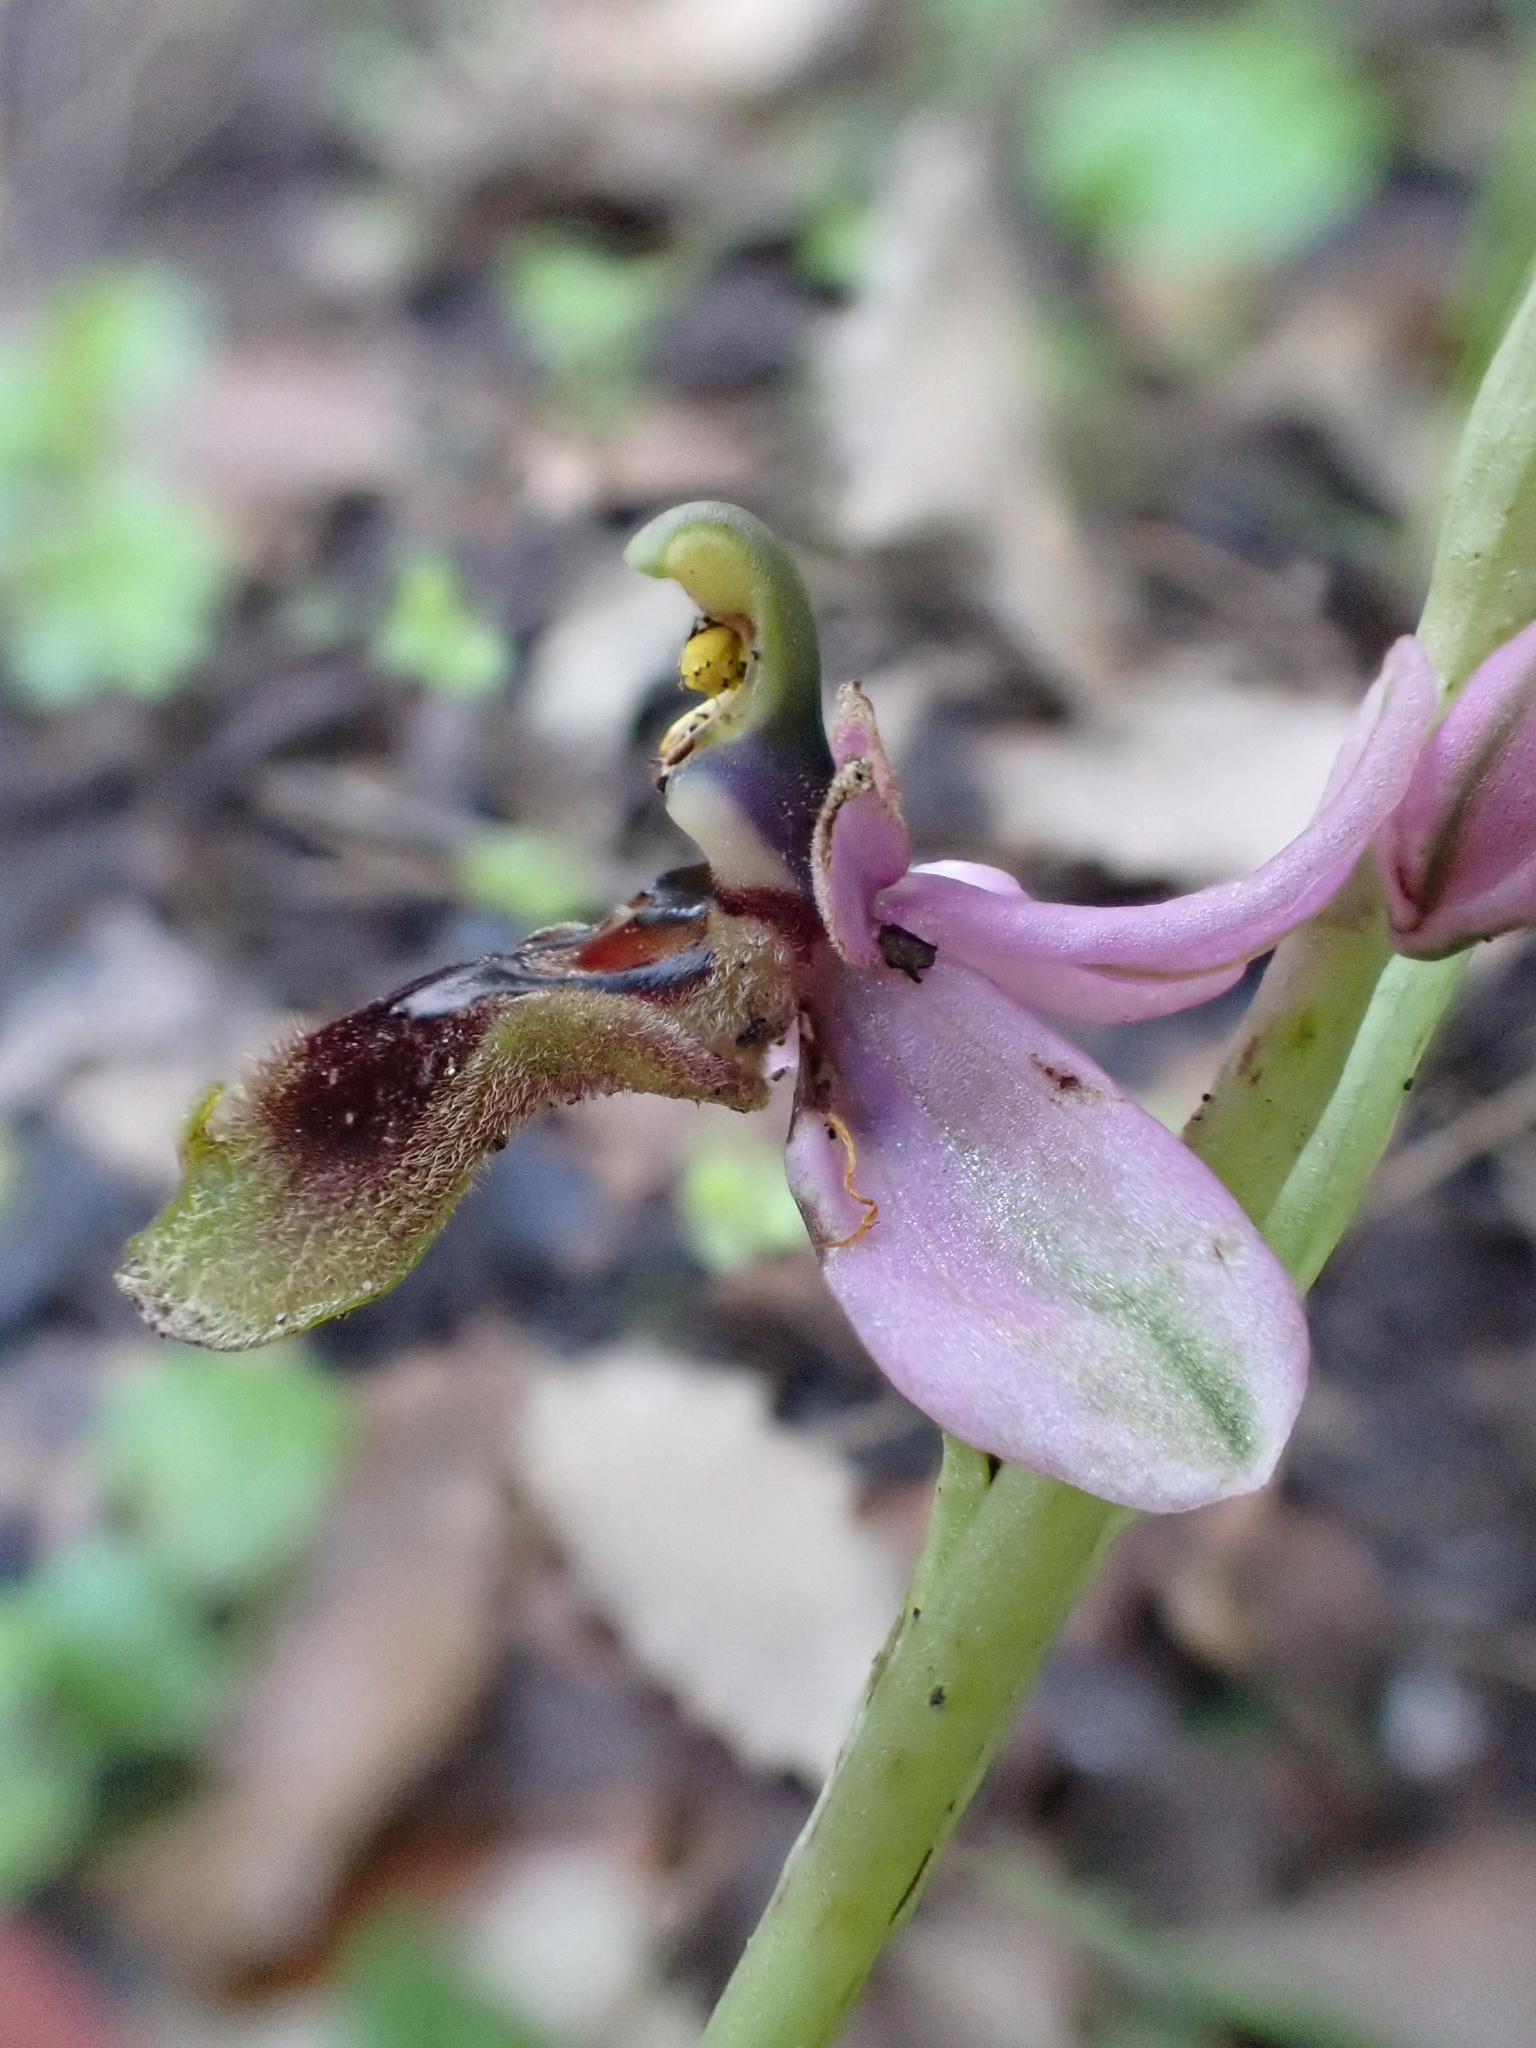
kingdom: Plantae
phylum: Tracheophyta
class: Liliopsida
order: Asparagales
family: Orchidaceae
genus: Ophrys
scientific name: Ophrys tenthredinifera
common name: Sawfly orchid
